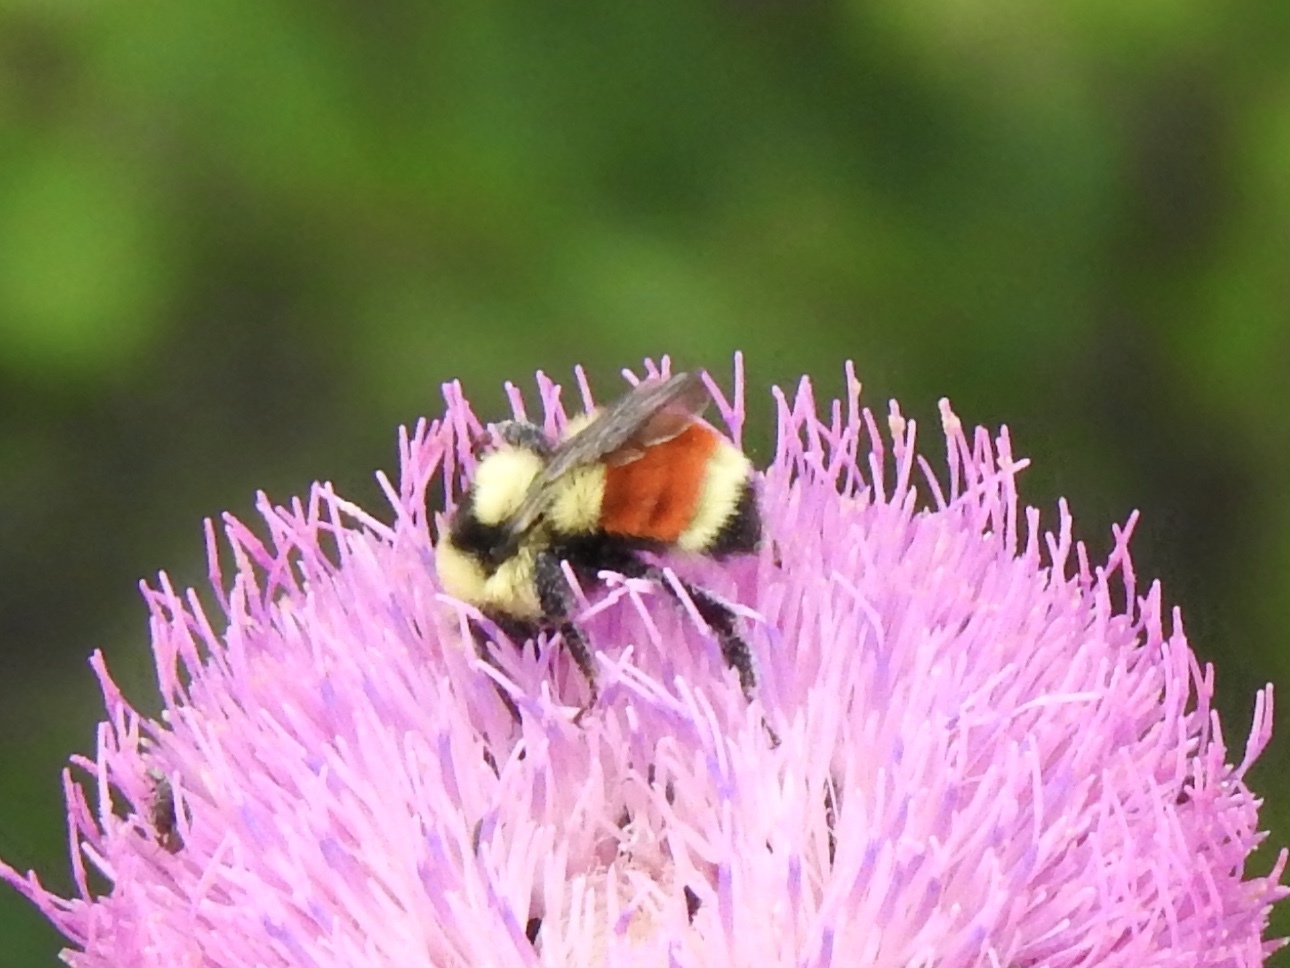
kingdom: Animalia
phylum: Arthropoda
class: Insecta
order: Hymenoptera
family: Apidae
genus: Bombus
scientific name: Bombus huntii
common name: Hunt bumble bee
